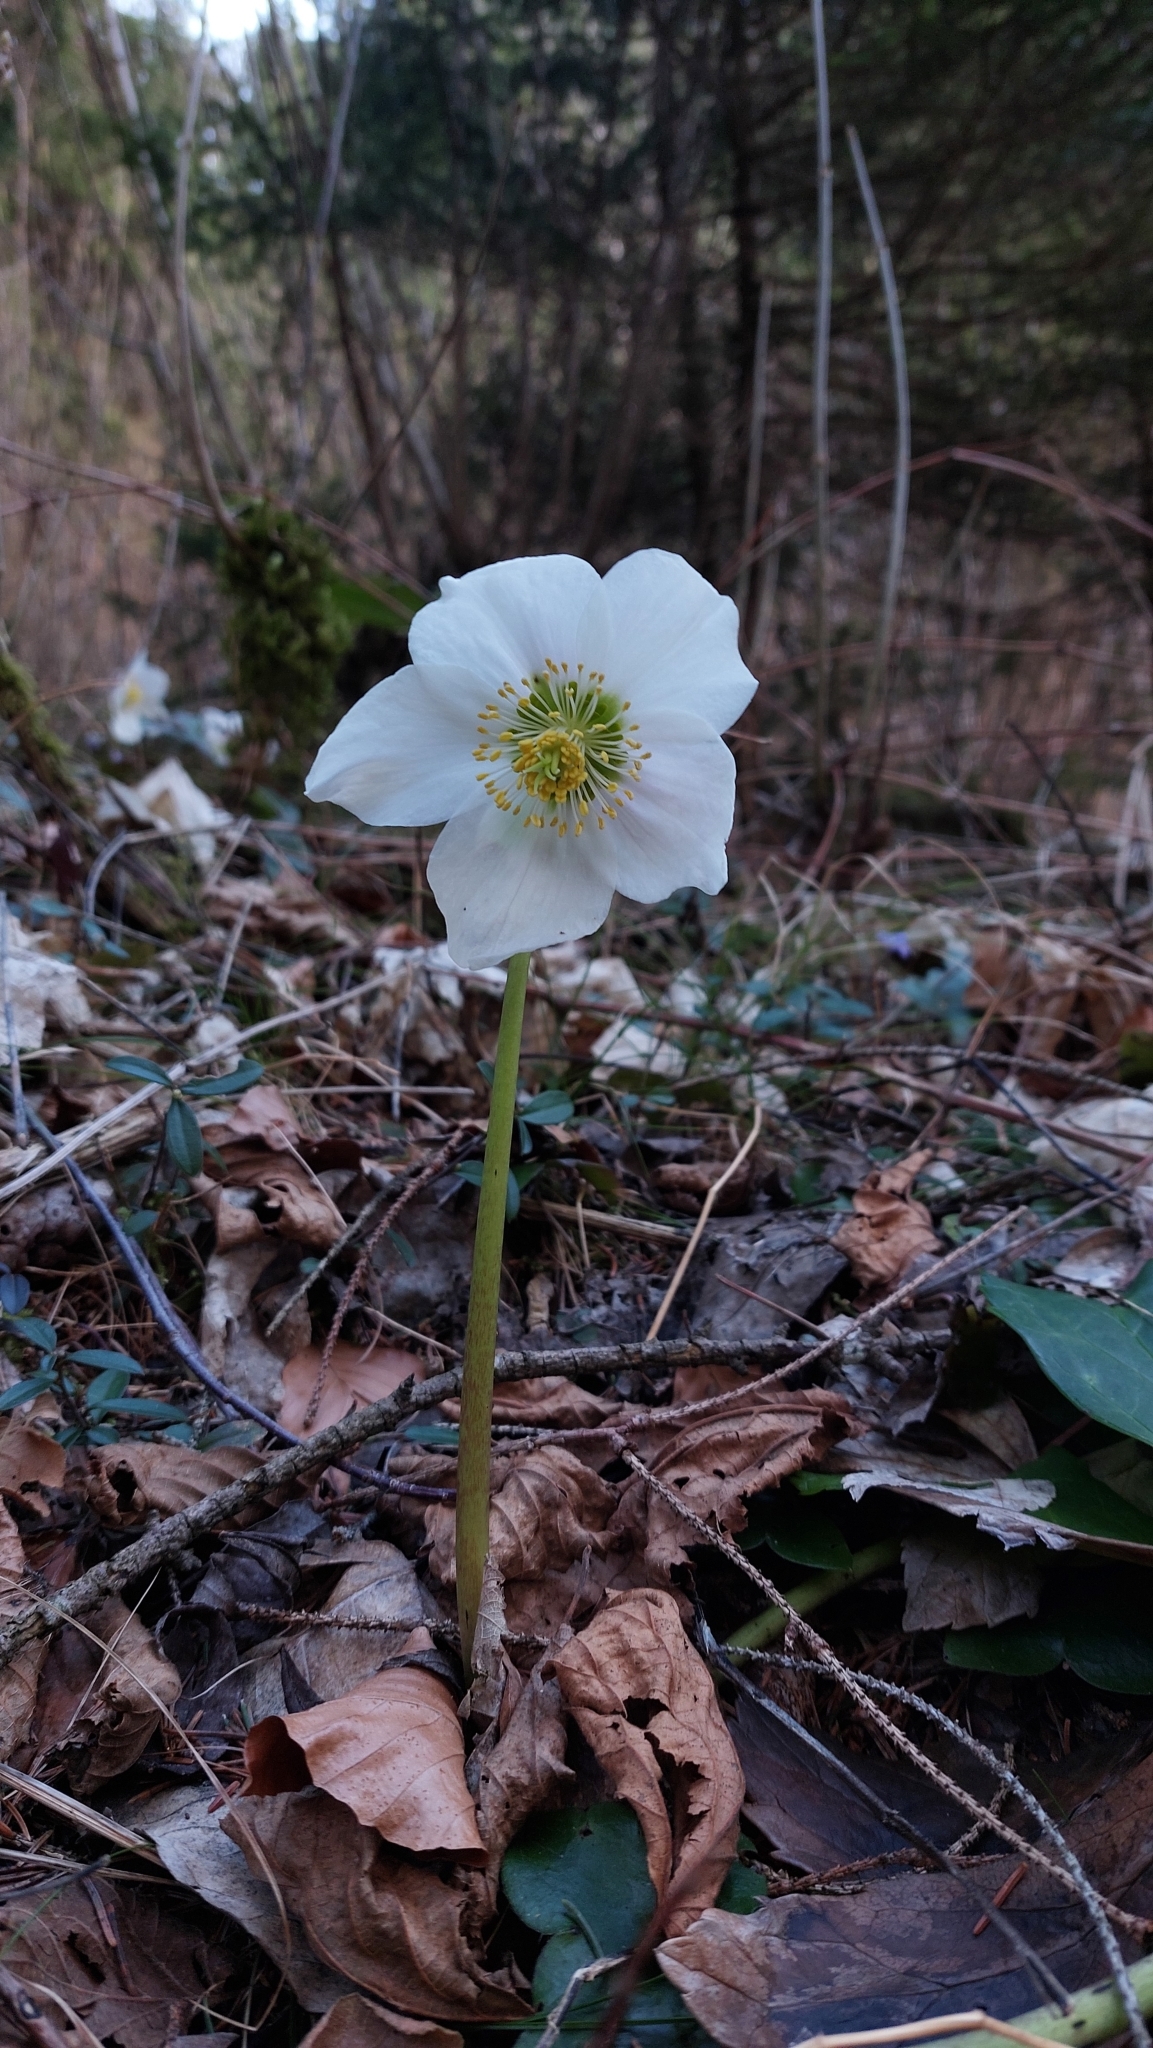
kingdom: Plantae
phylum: Tracheophyta
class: Magnoliopsida
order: Ranunculales
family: Ranunculaceae
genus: Helleborus
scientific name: Helleborus niger
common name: Black hellebore
